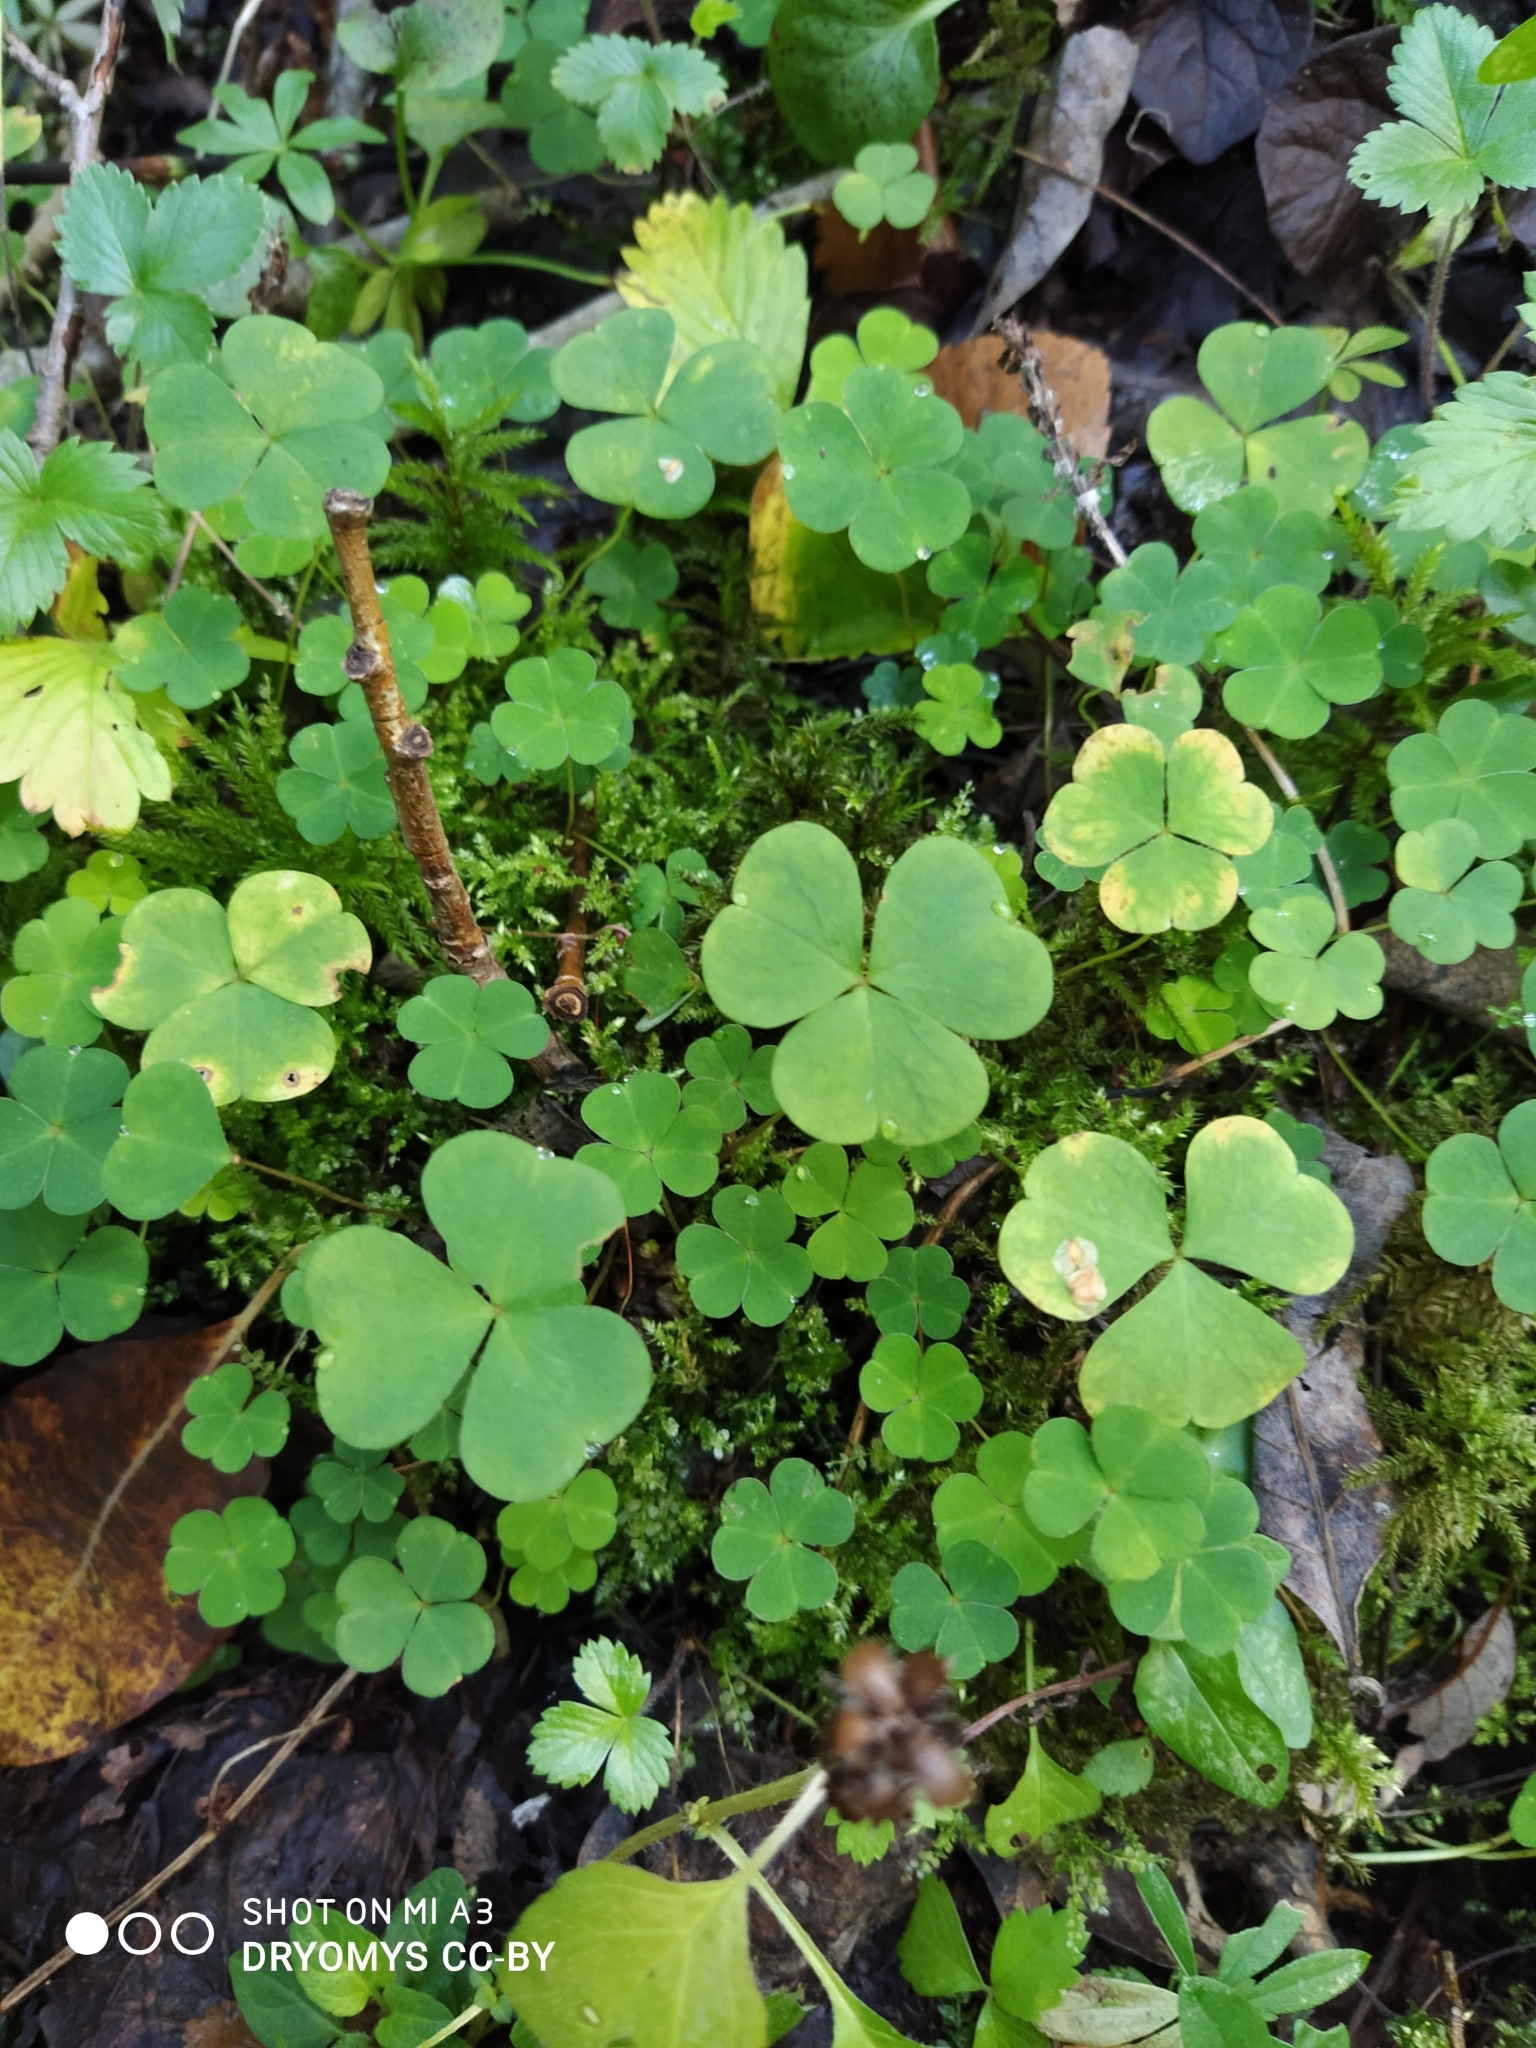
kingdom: Plantae
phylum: Tracheophyta
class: Magnoliopsida
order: Oxalidales
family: Oxalidaceae
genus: Oxalis
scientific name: Oxalis acetosella
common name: Wood-sorrel
